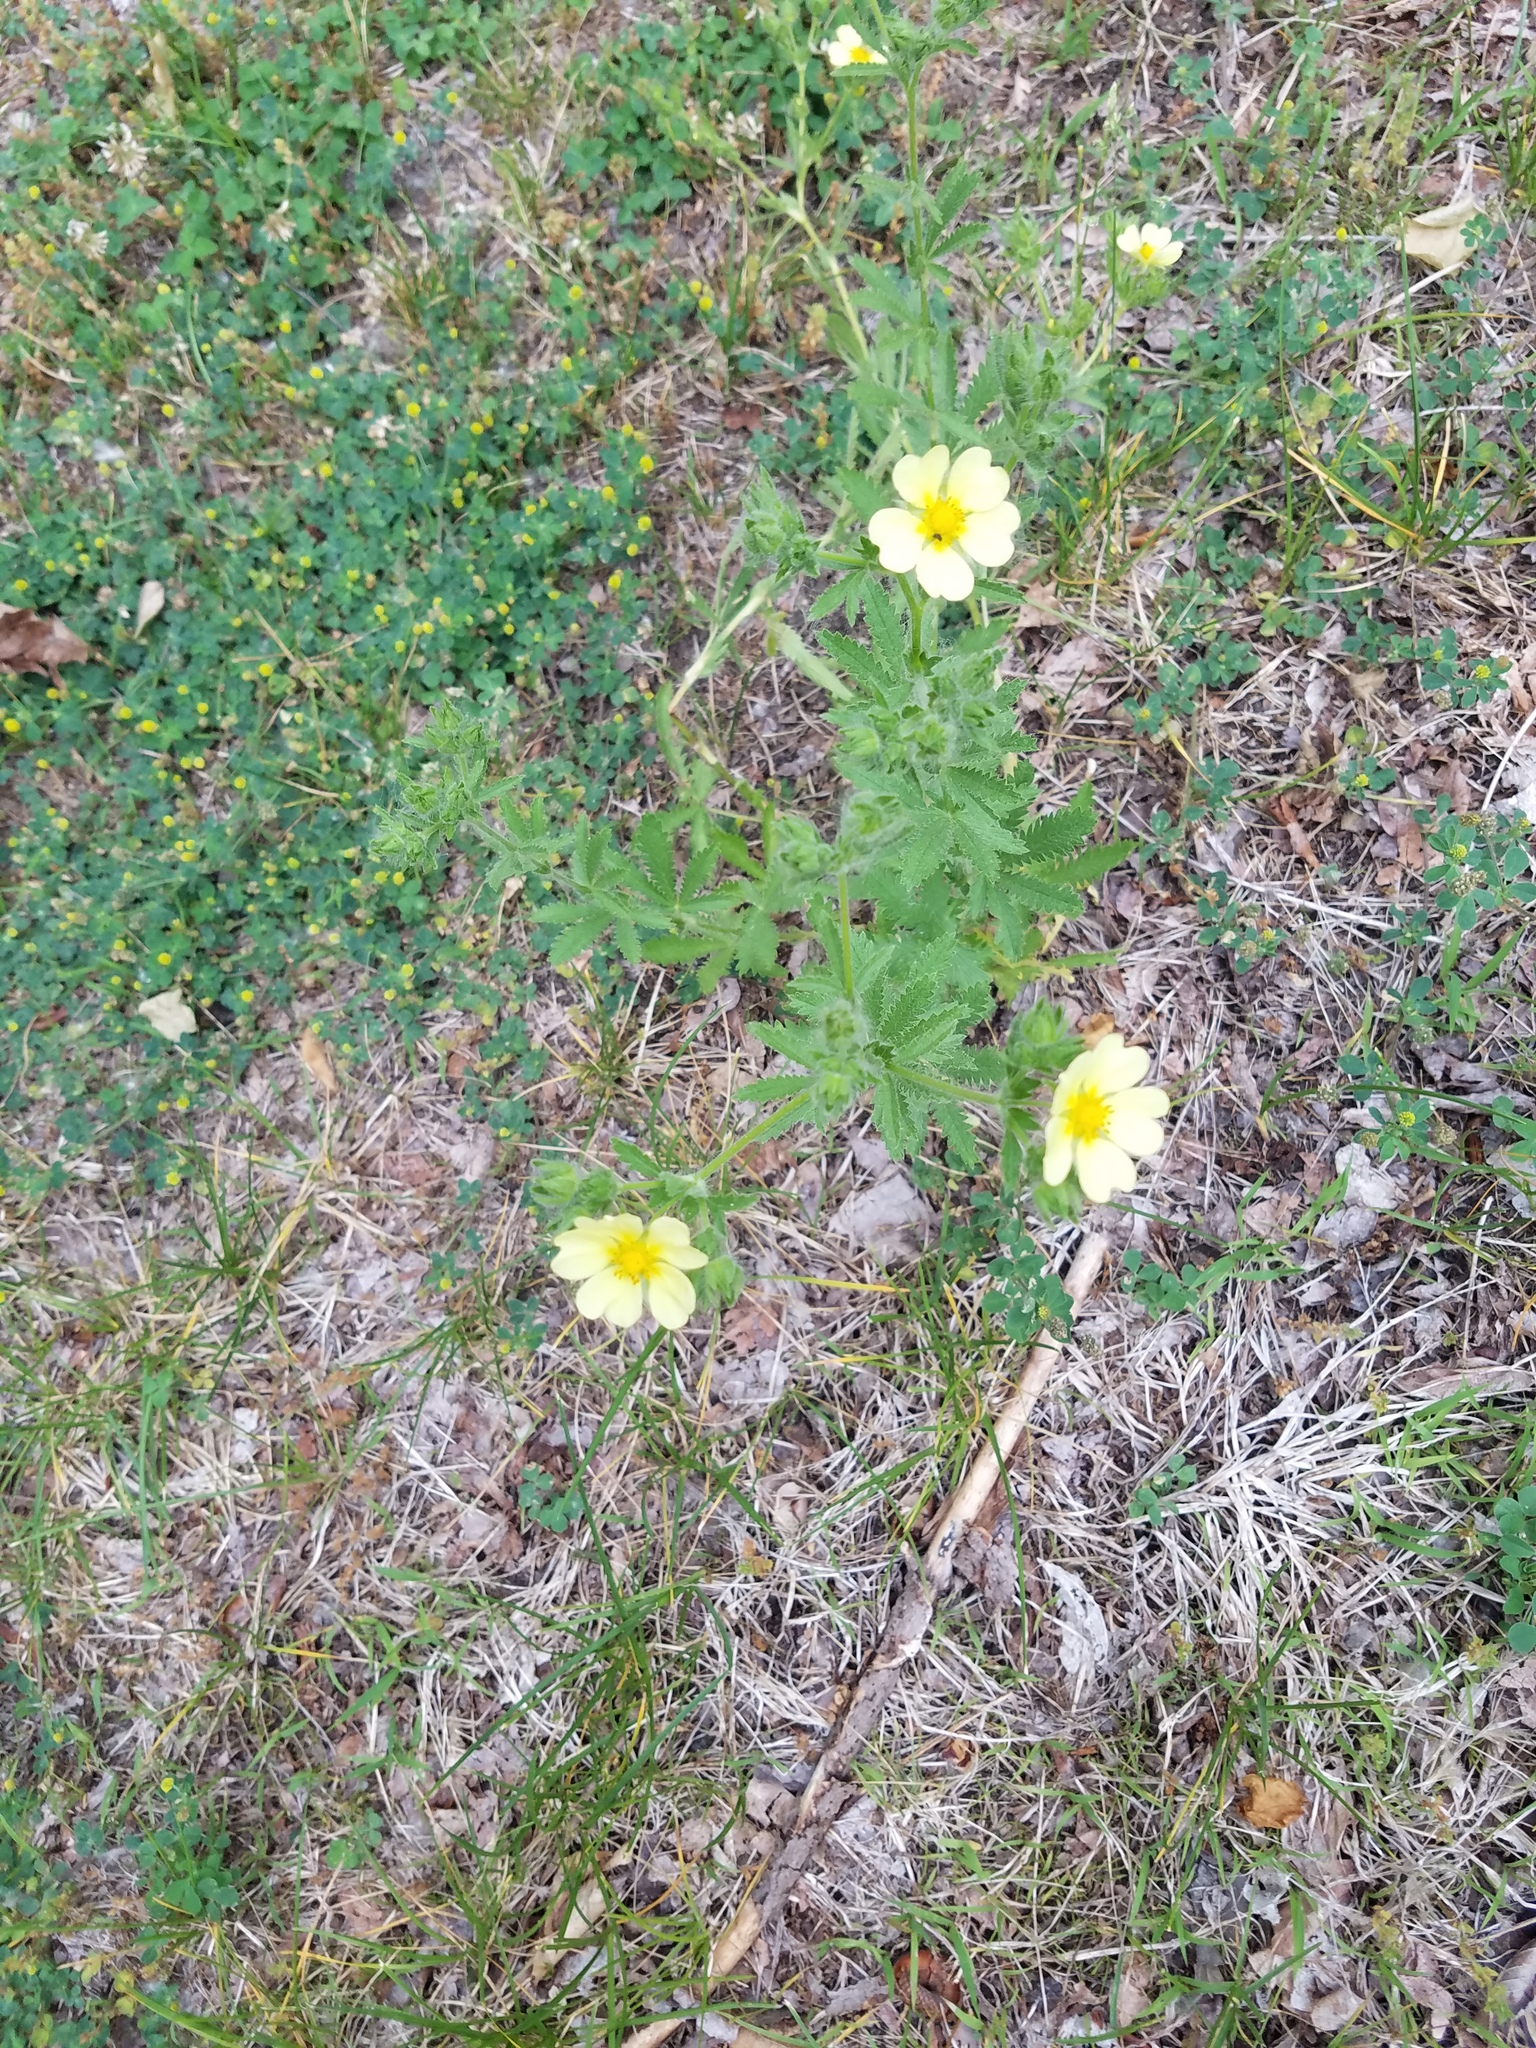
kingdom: Plantae
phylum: Tracheophyta
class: Magnoliopsida
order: Rosales
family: Rosaceae
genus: Potentilla
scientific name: Potentilla recta
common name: Sulphur cinquefoil
